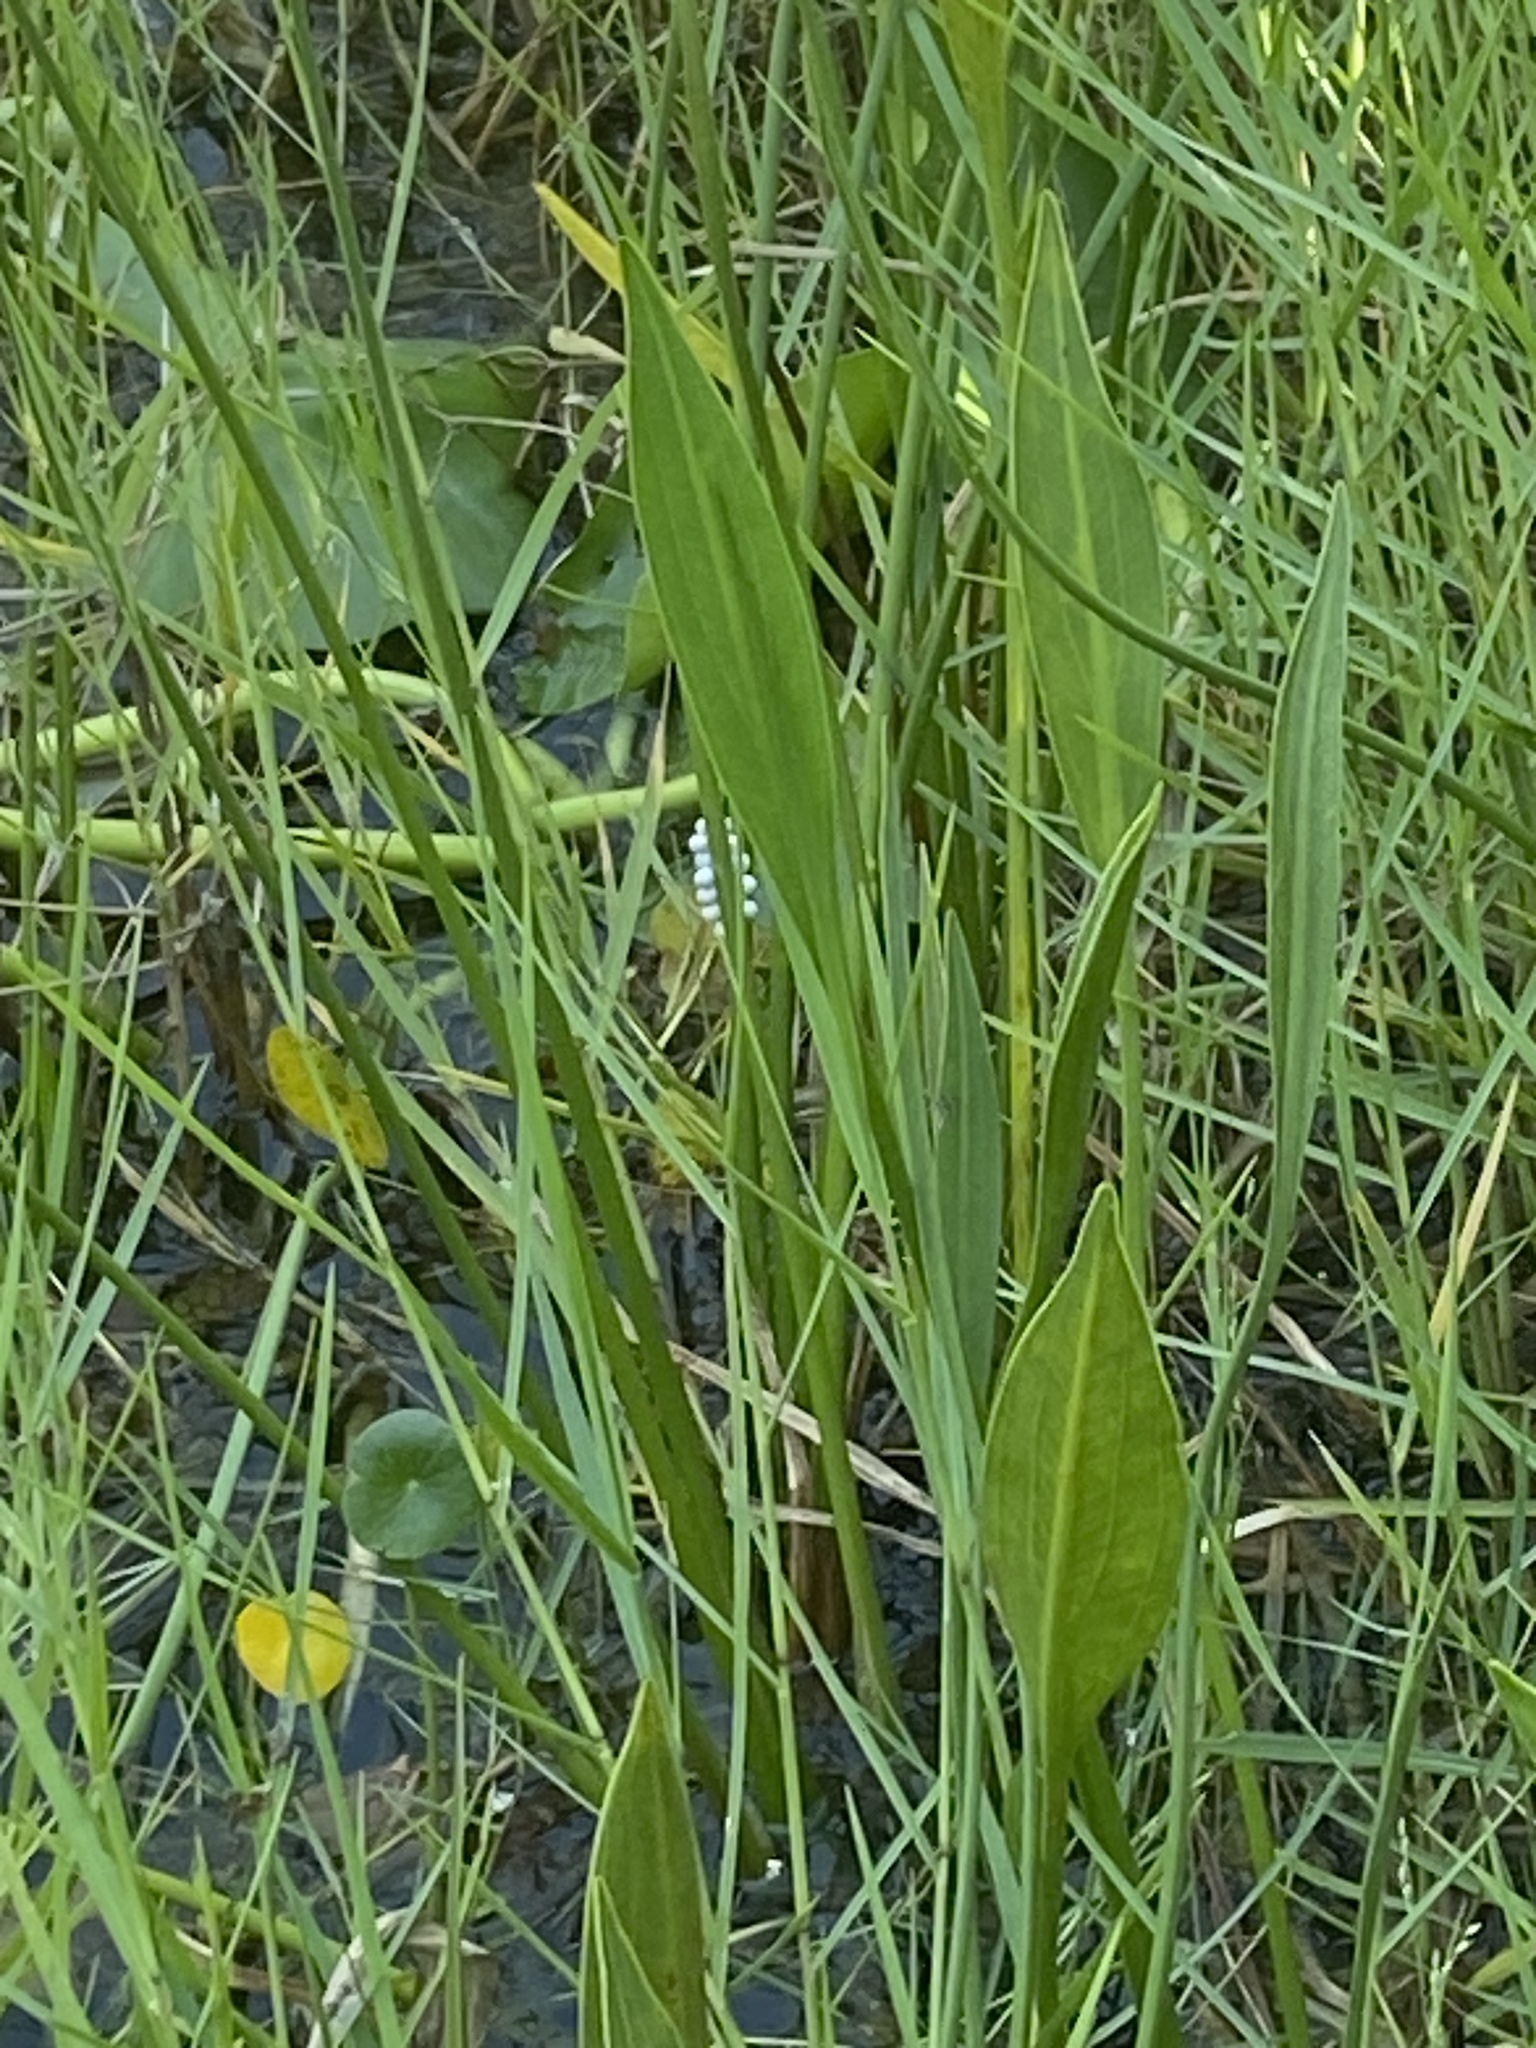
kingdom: Animalia
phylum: Mollusca
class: Gastropoda
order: Architaenioglossa
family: Ampullariidae
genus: Pomacea
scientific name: Pomacea paludosa
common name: Florida applesnail
